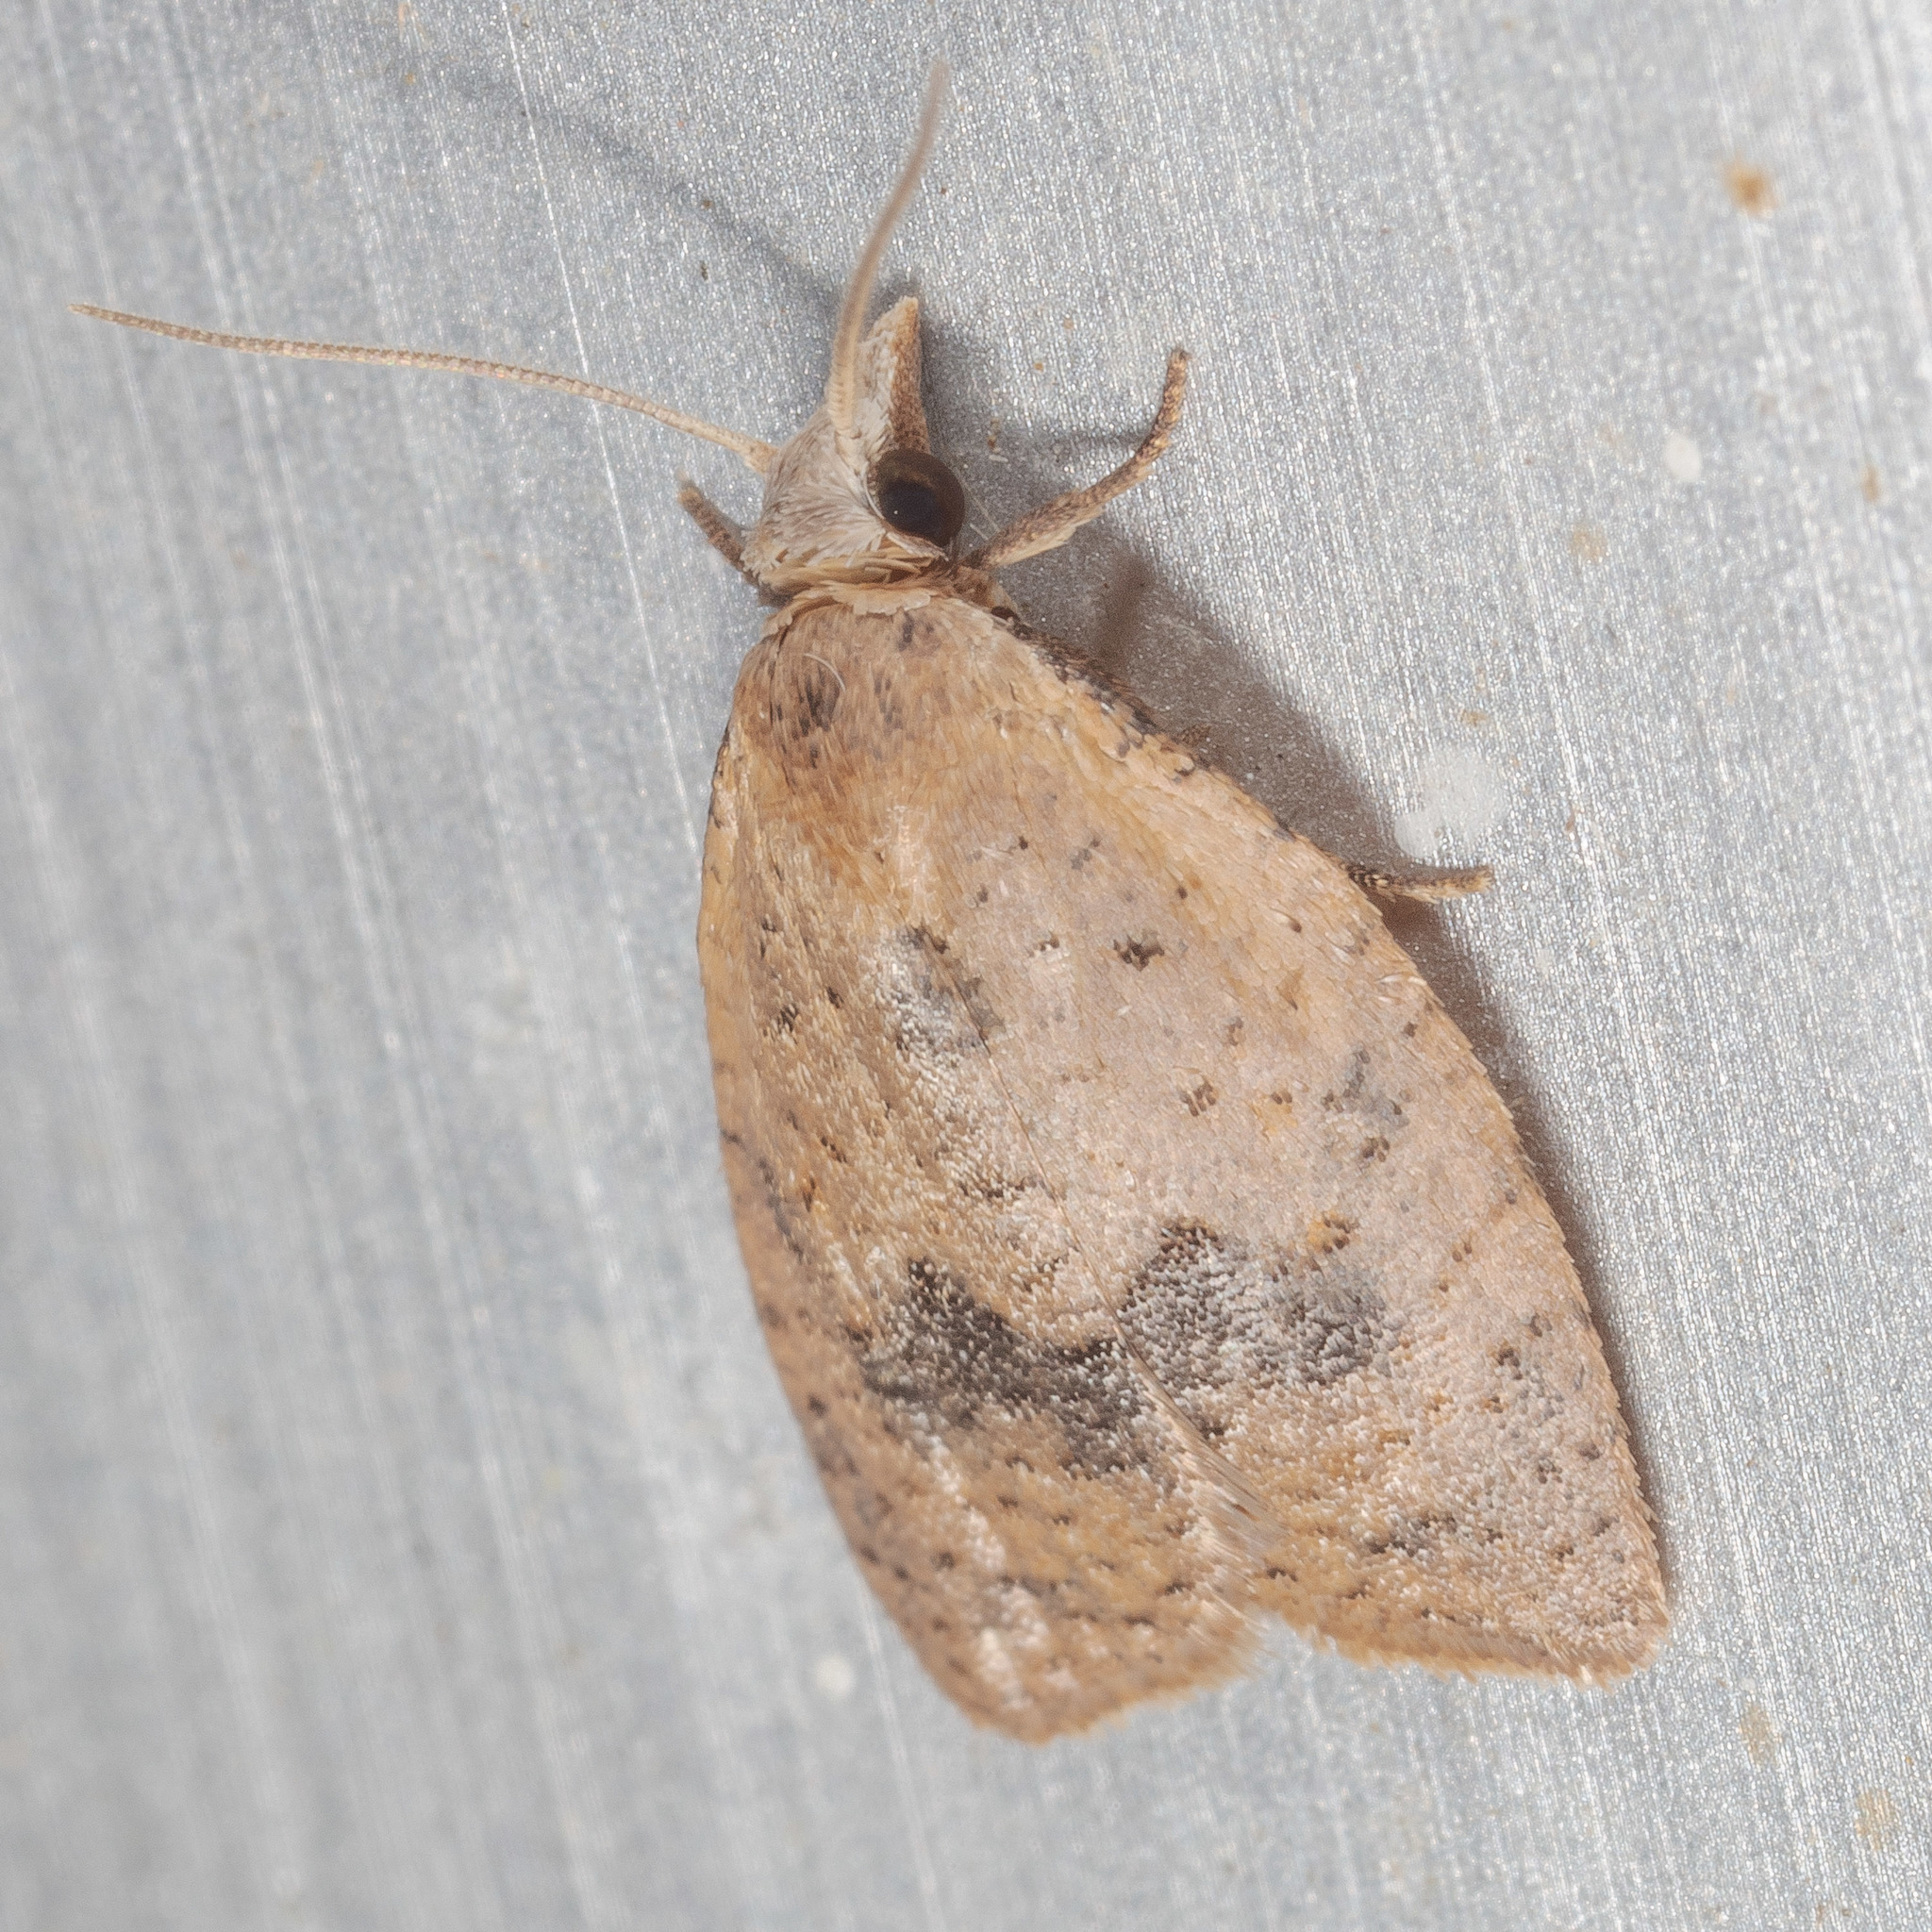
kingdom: Animalia
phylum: Arthropoda
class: Insecta
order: Lepidoptera
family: Tortricidae
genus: Sparganothoides
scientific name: Sparganothoides lentiginosana
